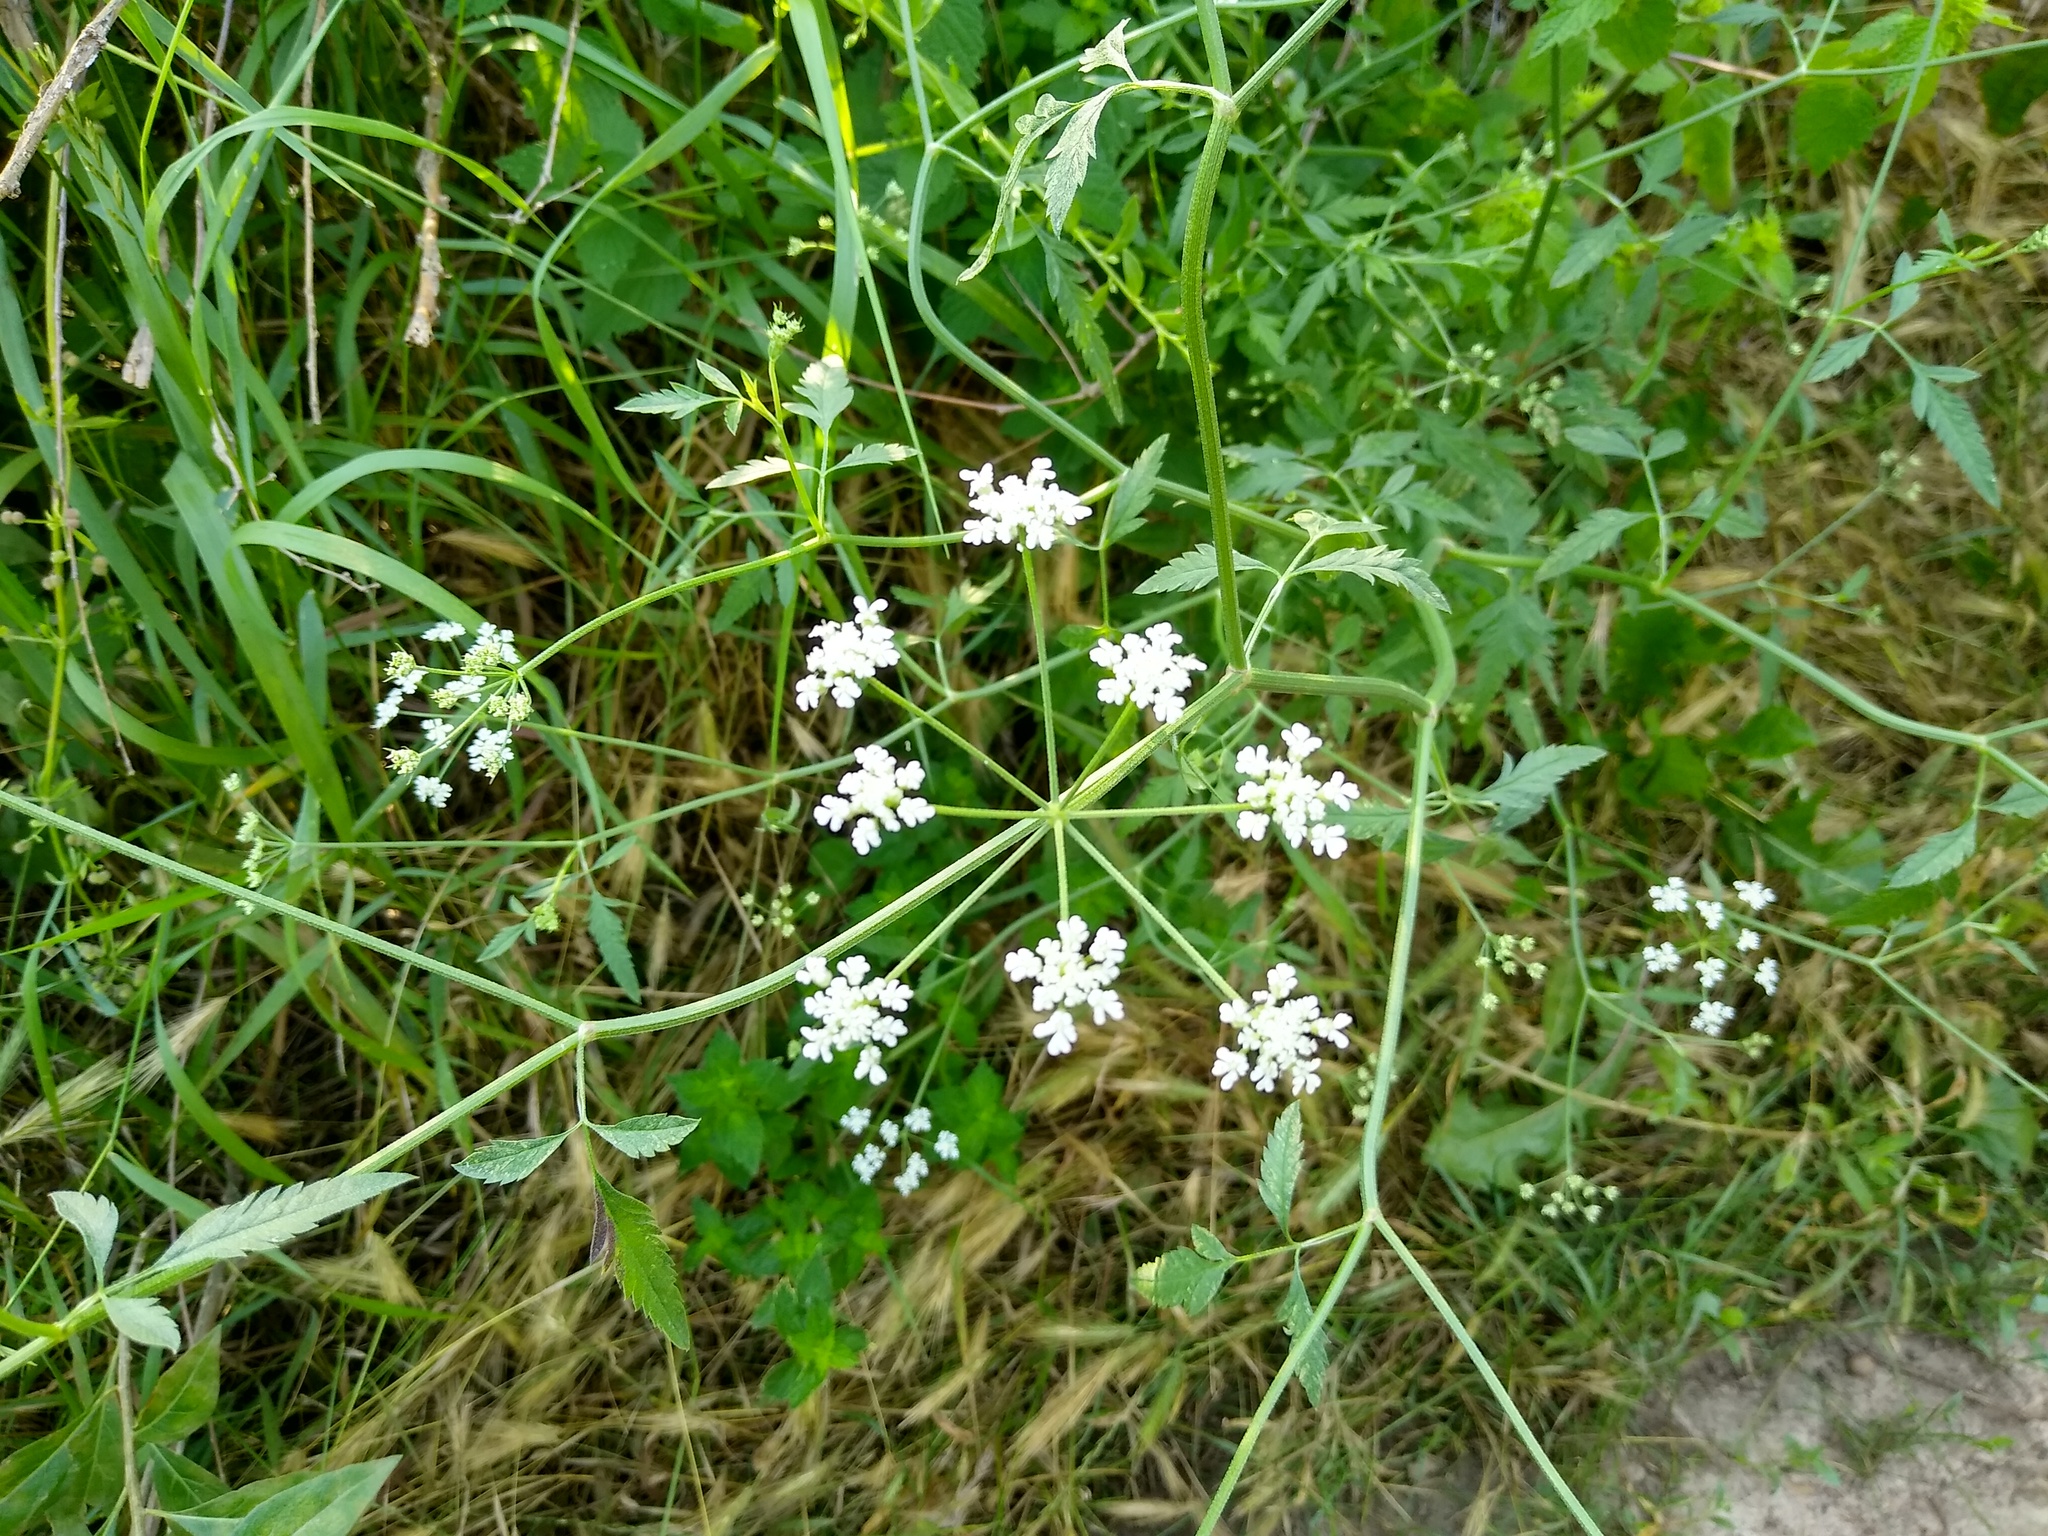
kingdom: Plantae
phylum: Tracheophyta
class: Magnoliopsida
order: Apiales
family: Apiaceae
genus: Torilis
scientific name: Torilis arvensis
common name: Spreading hedge-parsley
